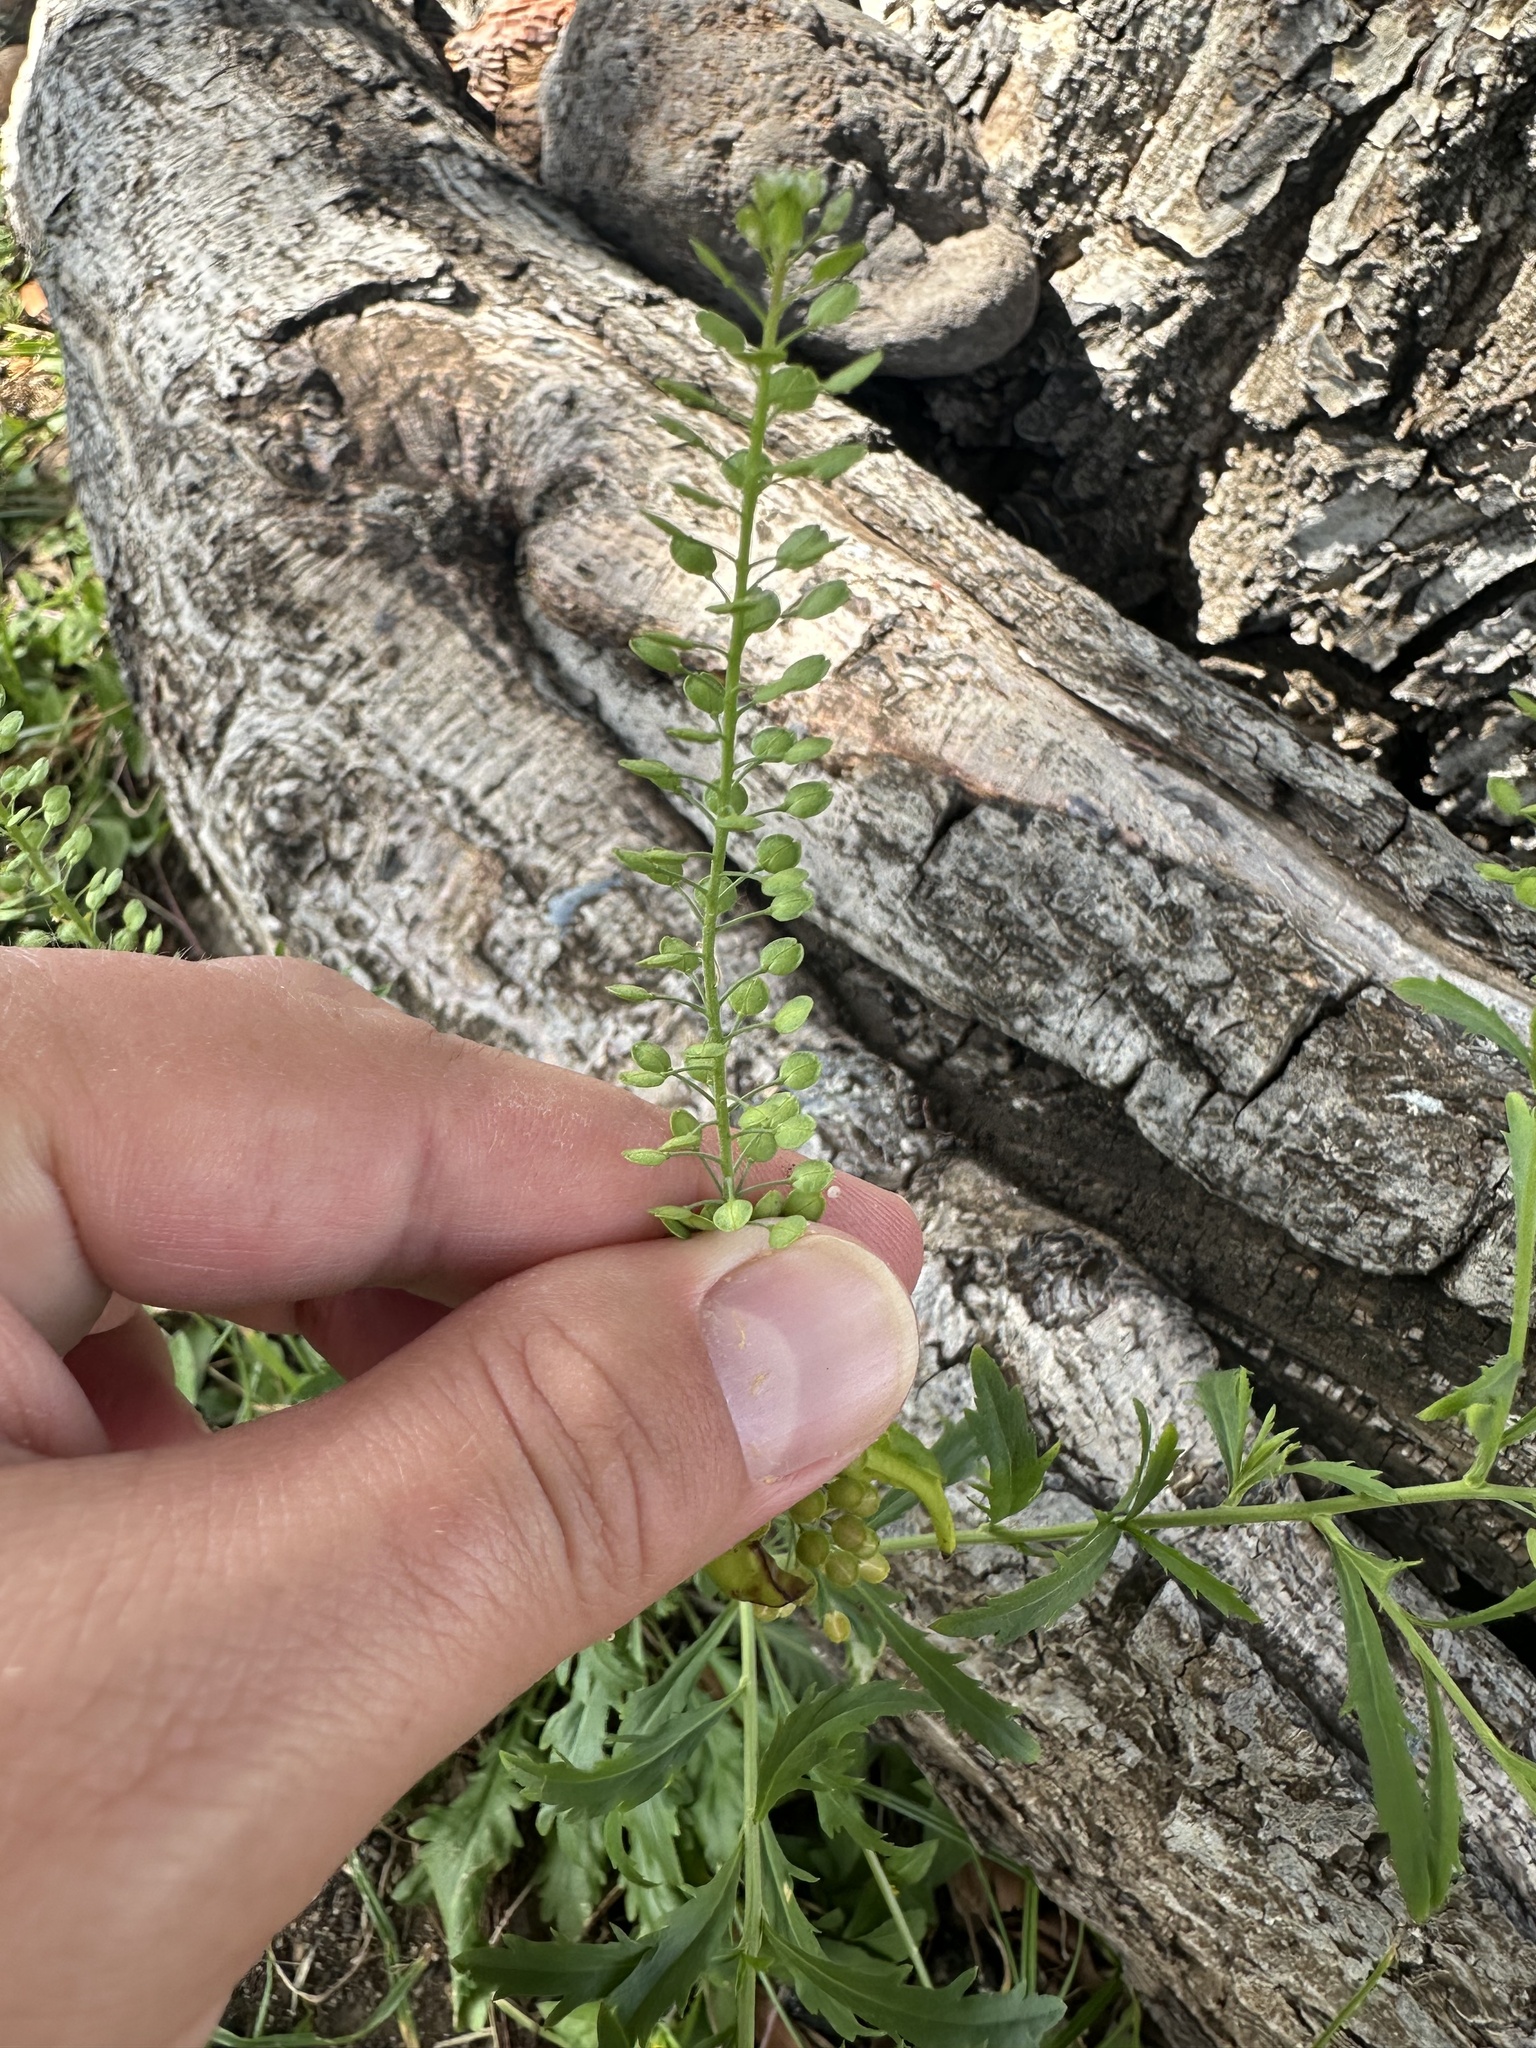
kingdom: Plantae
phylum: Tracheophyta
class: Magnoliopsida
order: Brassicales
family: Brassicaceae
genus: Lepidium
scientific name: Lepidium virginicum
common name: Least pepperwort
